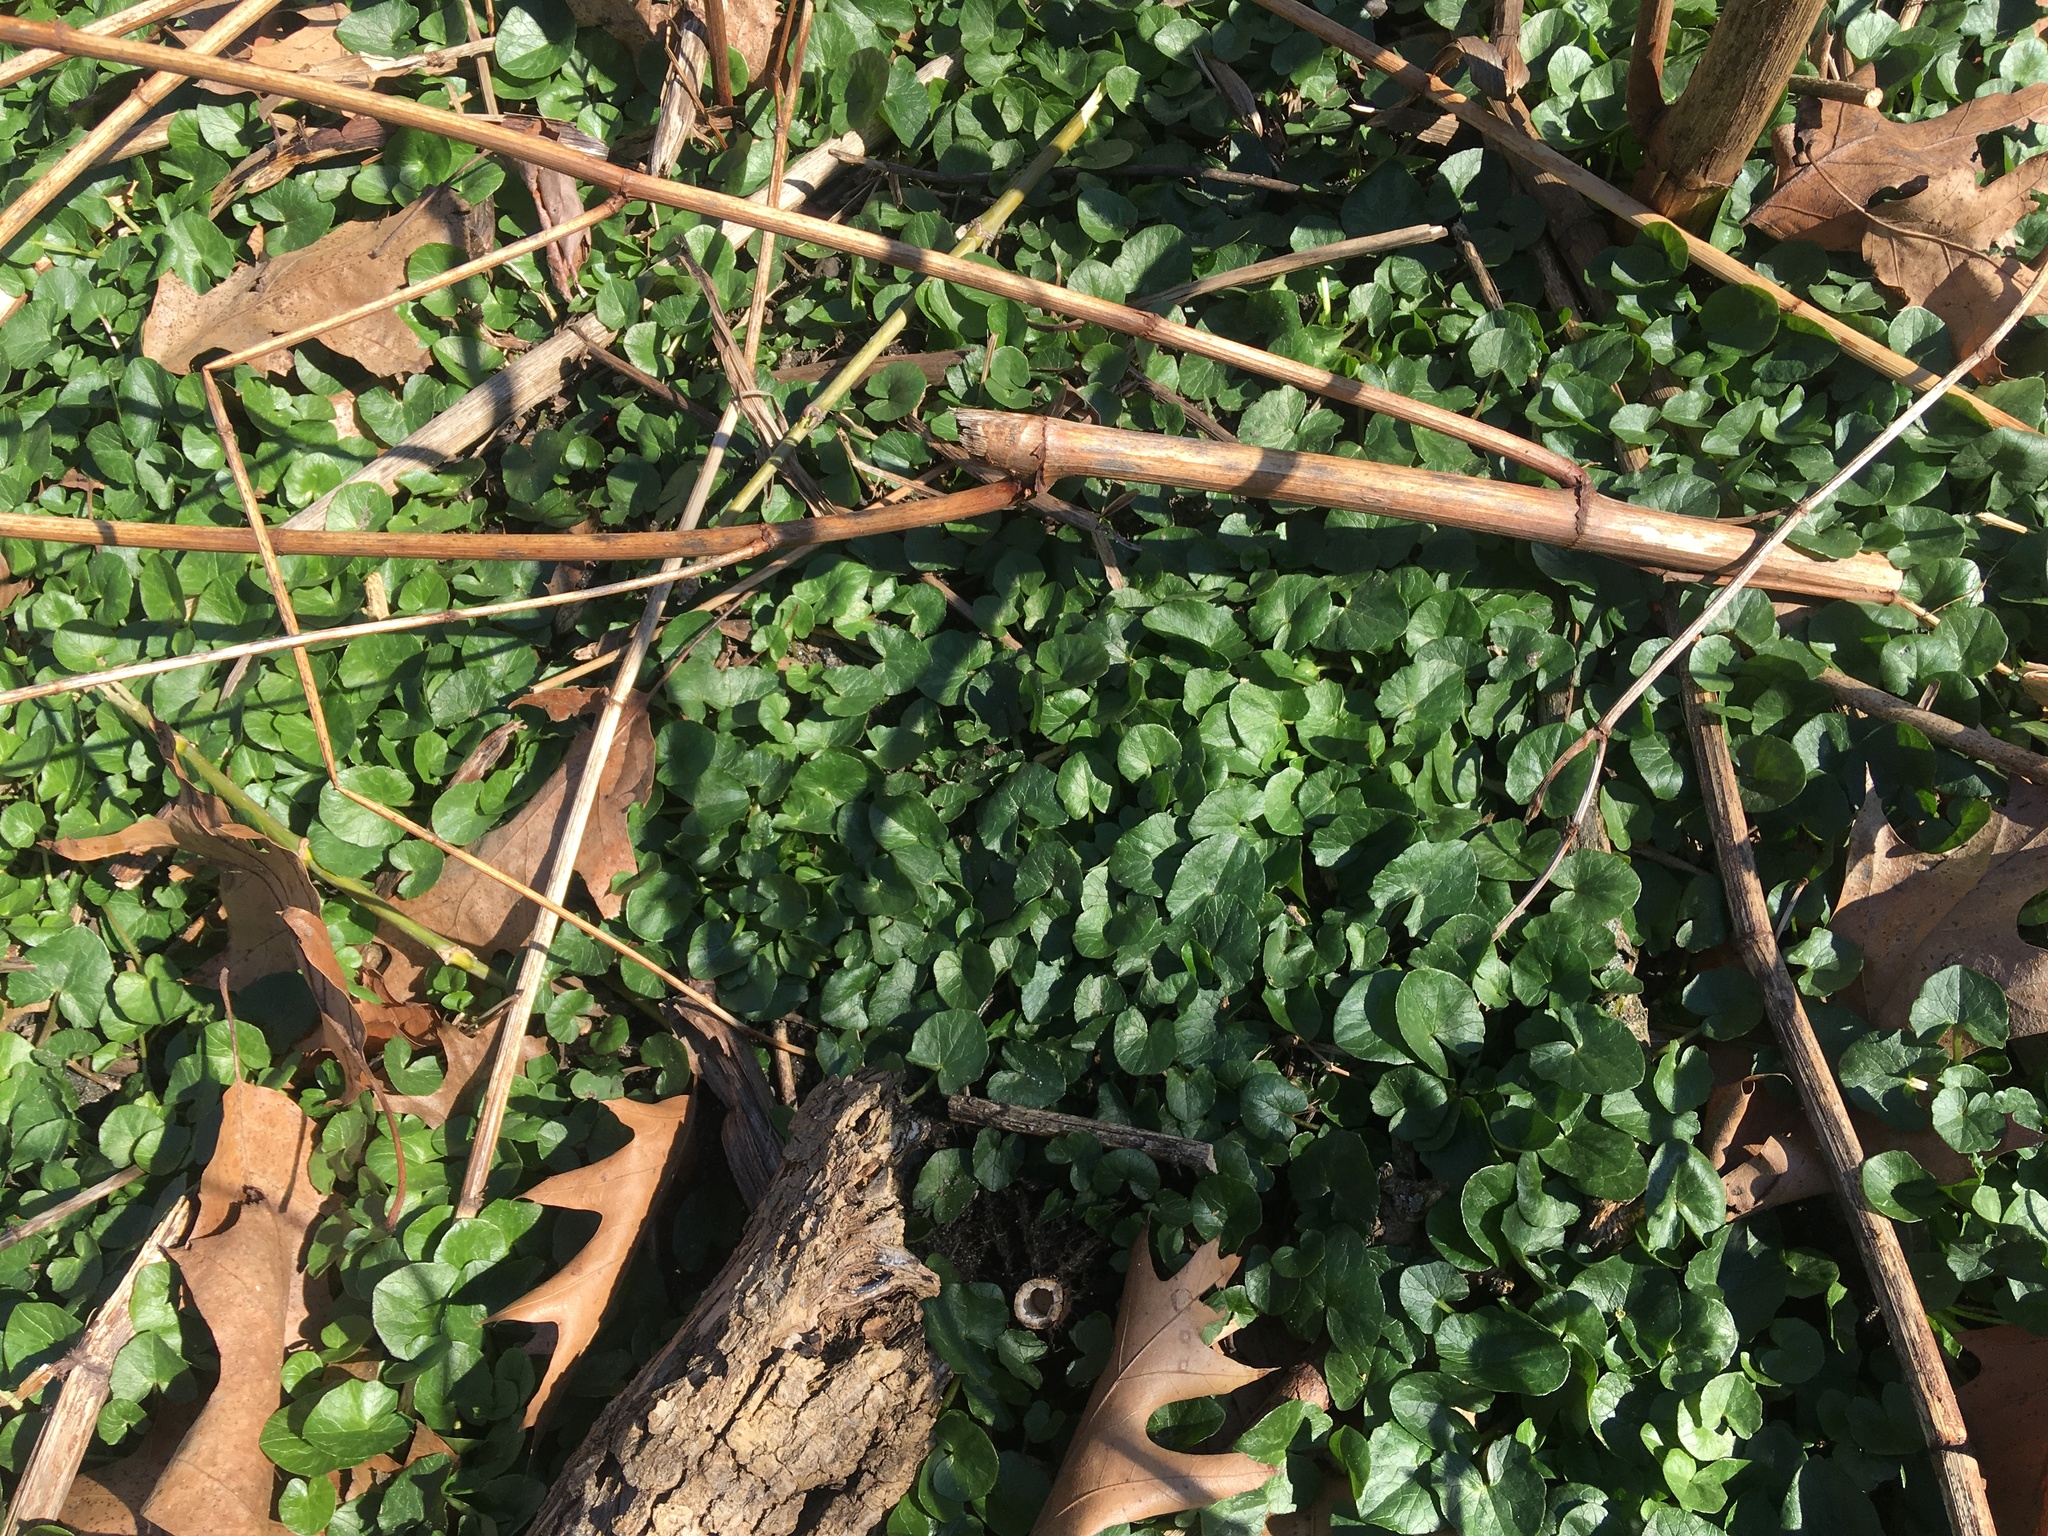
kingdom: Plantae
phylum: Tracheophyta
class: Magnoliopsida
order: Ranunculales
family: Ranunculaceae
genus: Ficaria
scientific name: Ficaria verna
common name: Lesser celandine
